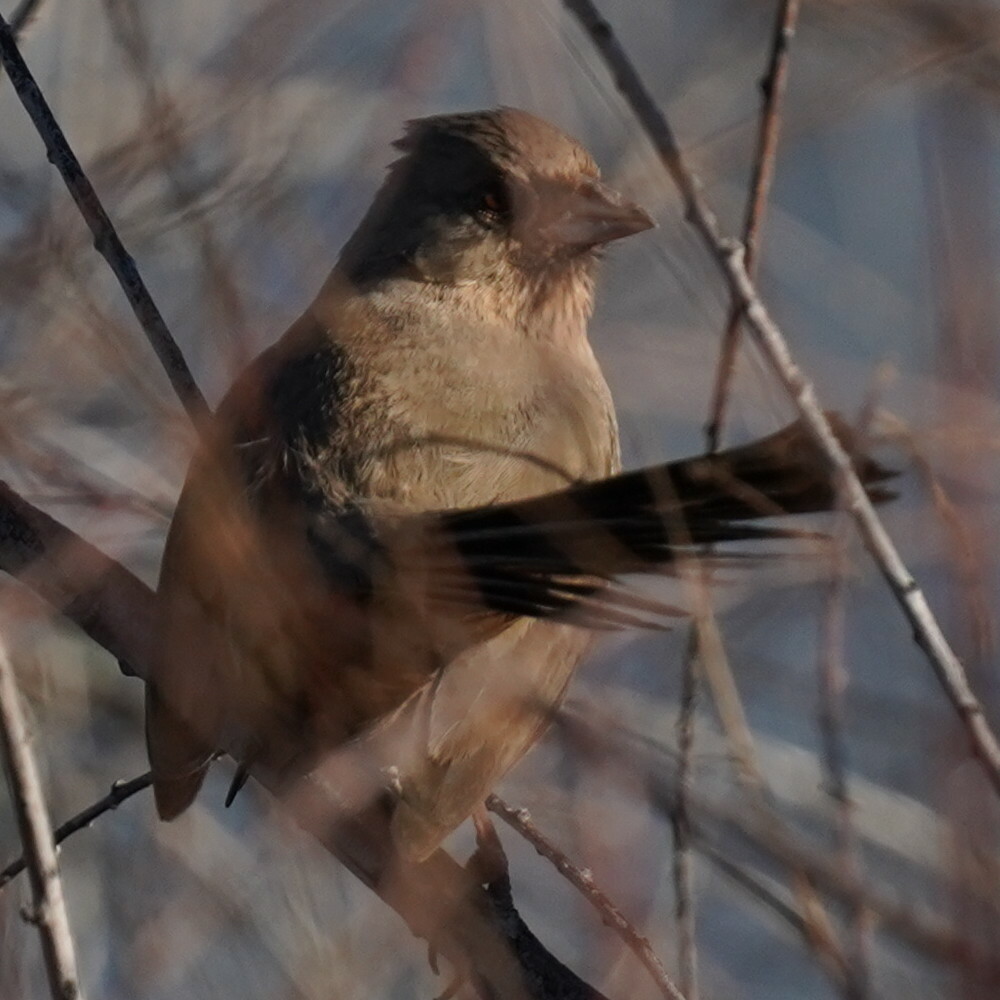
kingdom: Animalia
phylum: Chordata
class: Aves
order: Passeriformes
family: Passerellidae
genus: Melozone
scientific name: Melozone aberti
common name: Abert's towhee
